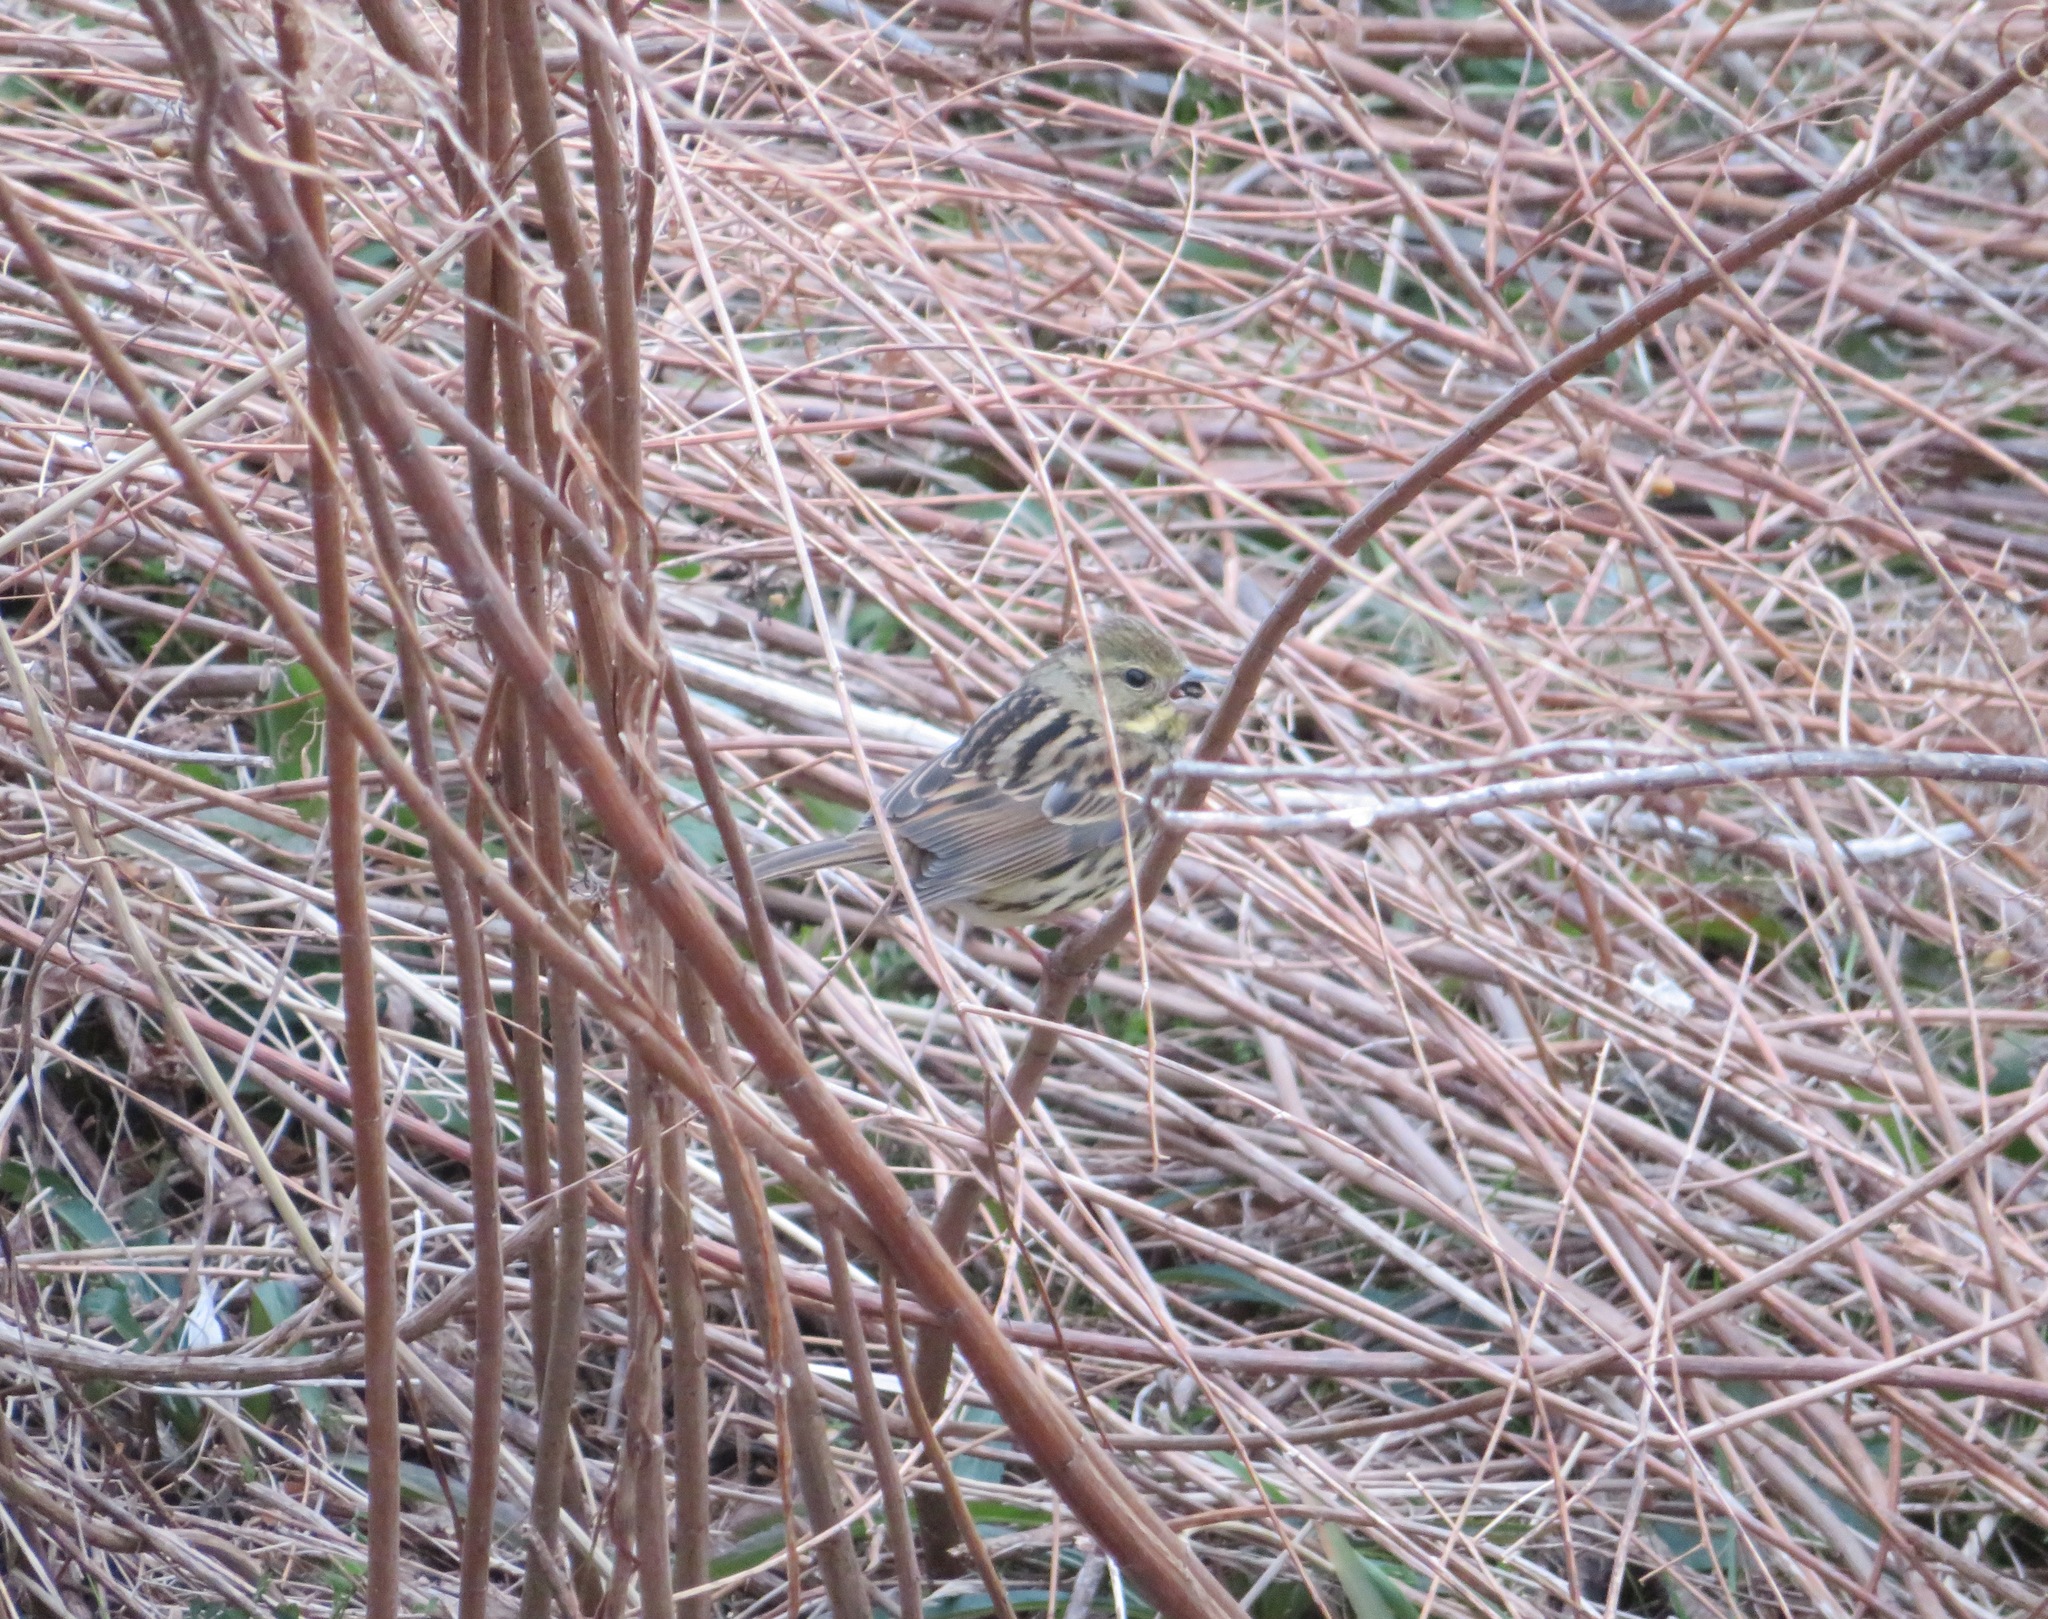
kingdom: Animalia
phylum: Chordata
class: Aves
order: Passeriformes
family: Emberizidae
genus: Emberiza
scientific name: Emberiza personata
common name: Masked bunting
